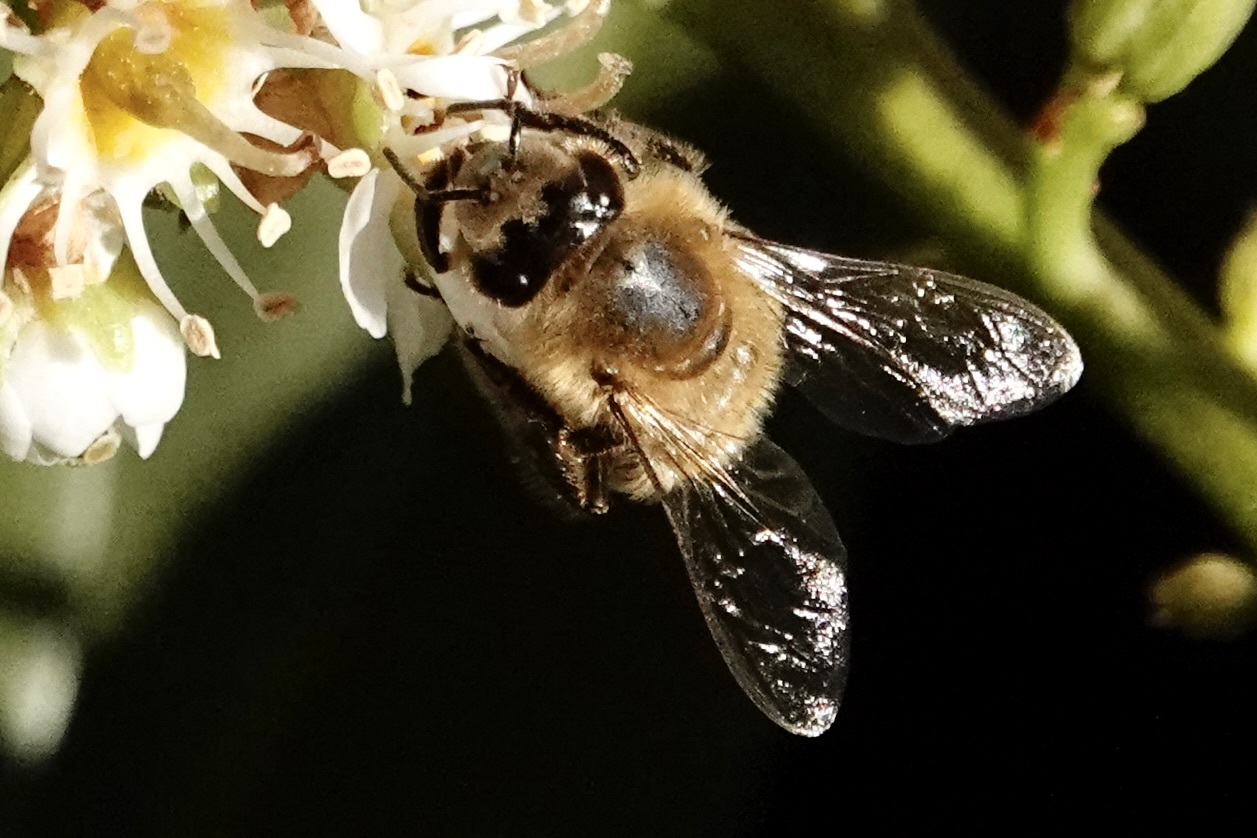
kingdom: Animalia
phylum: Arthropoda
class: Insecta
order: Hymenoptera
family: Apidae
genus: Apis
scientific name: Apis mellifera
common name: Honey bee
